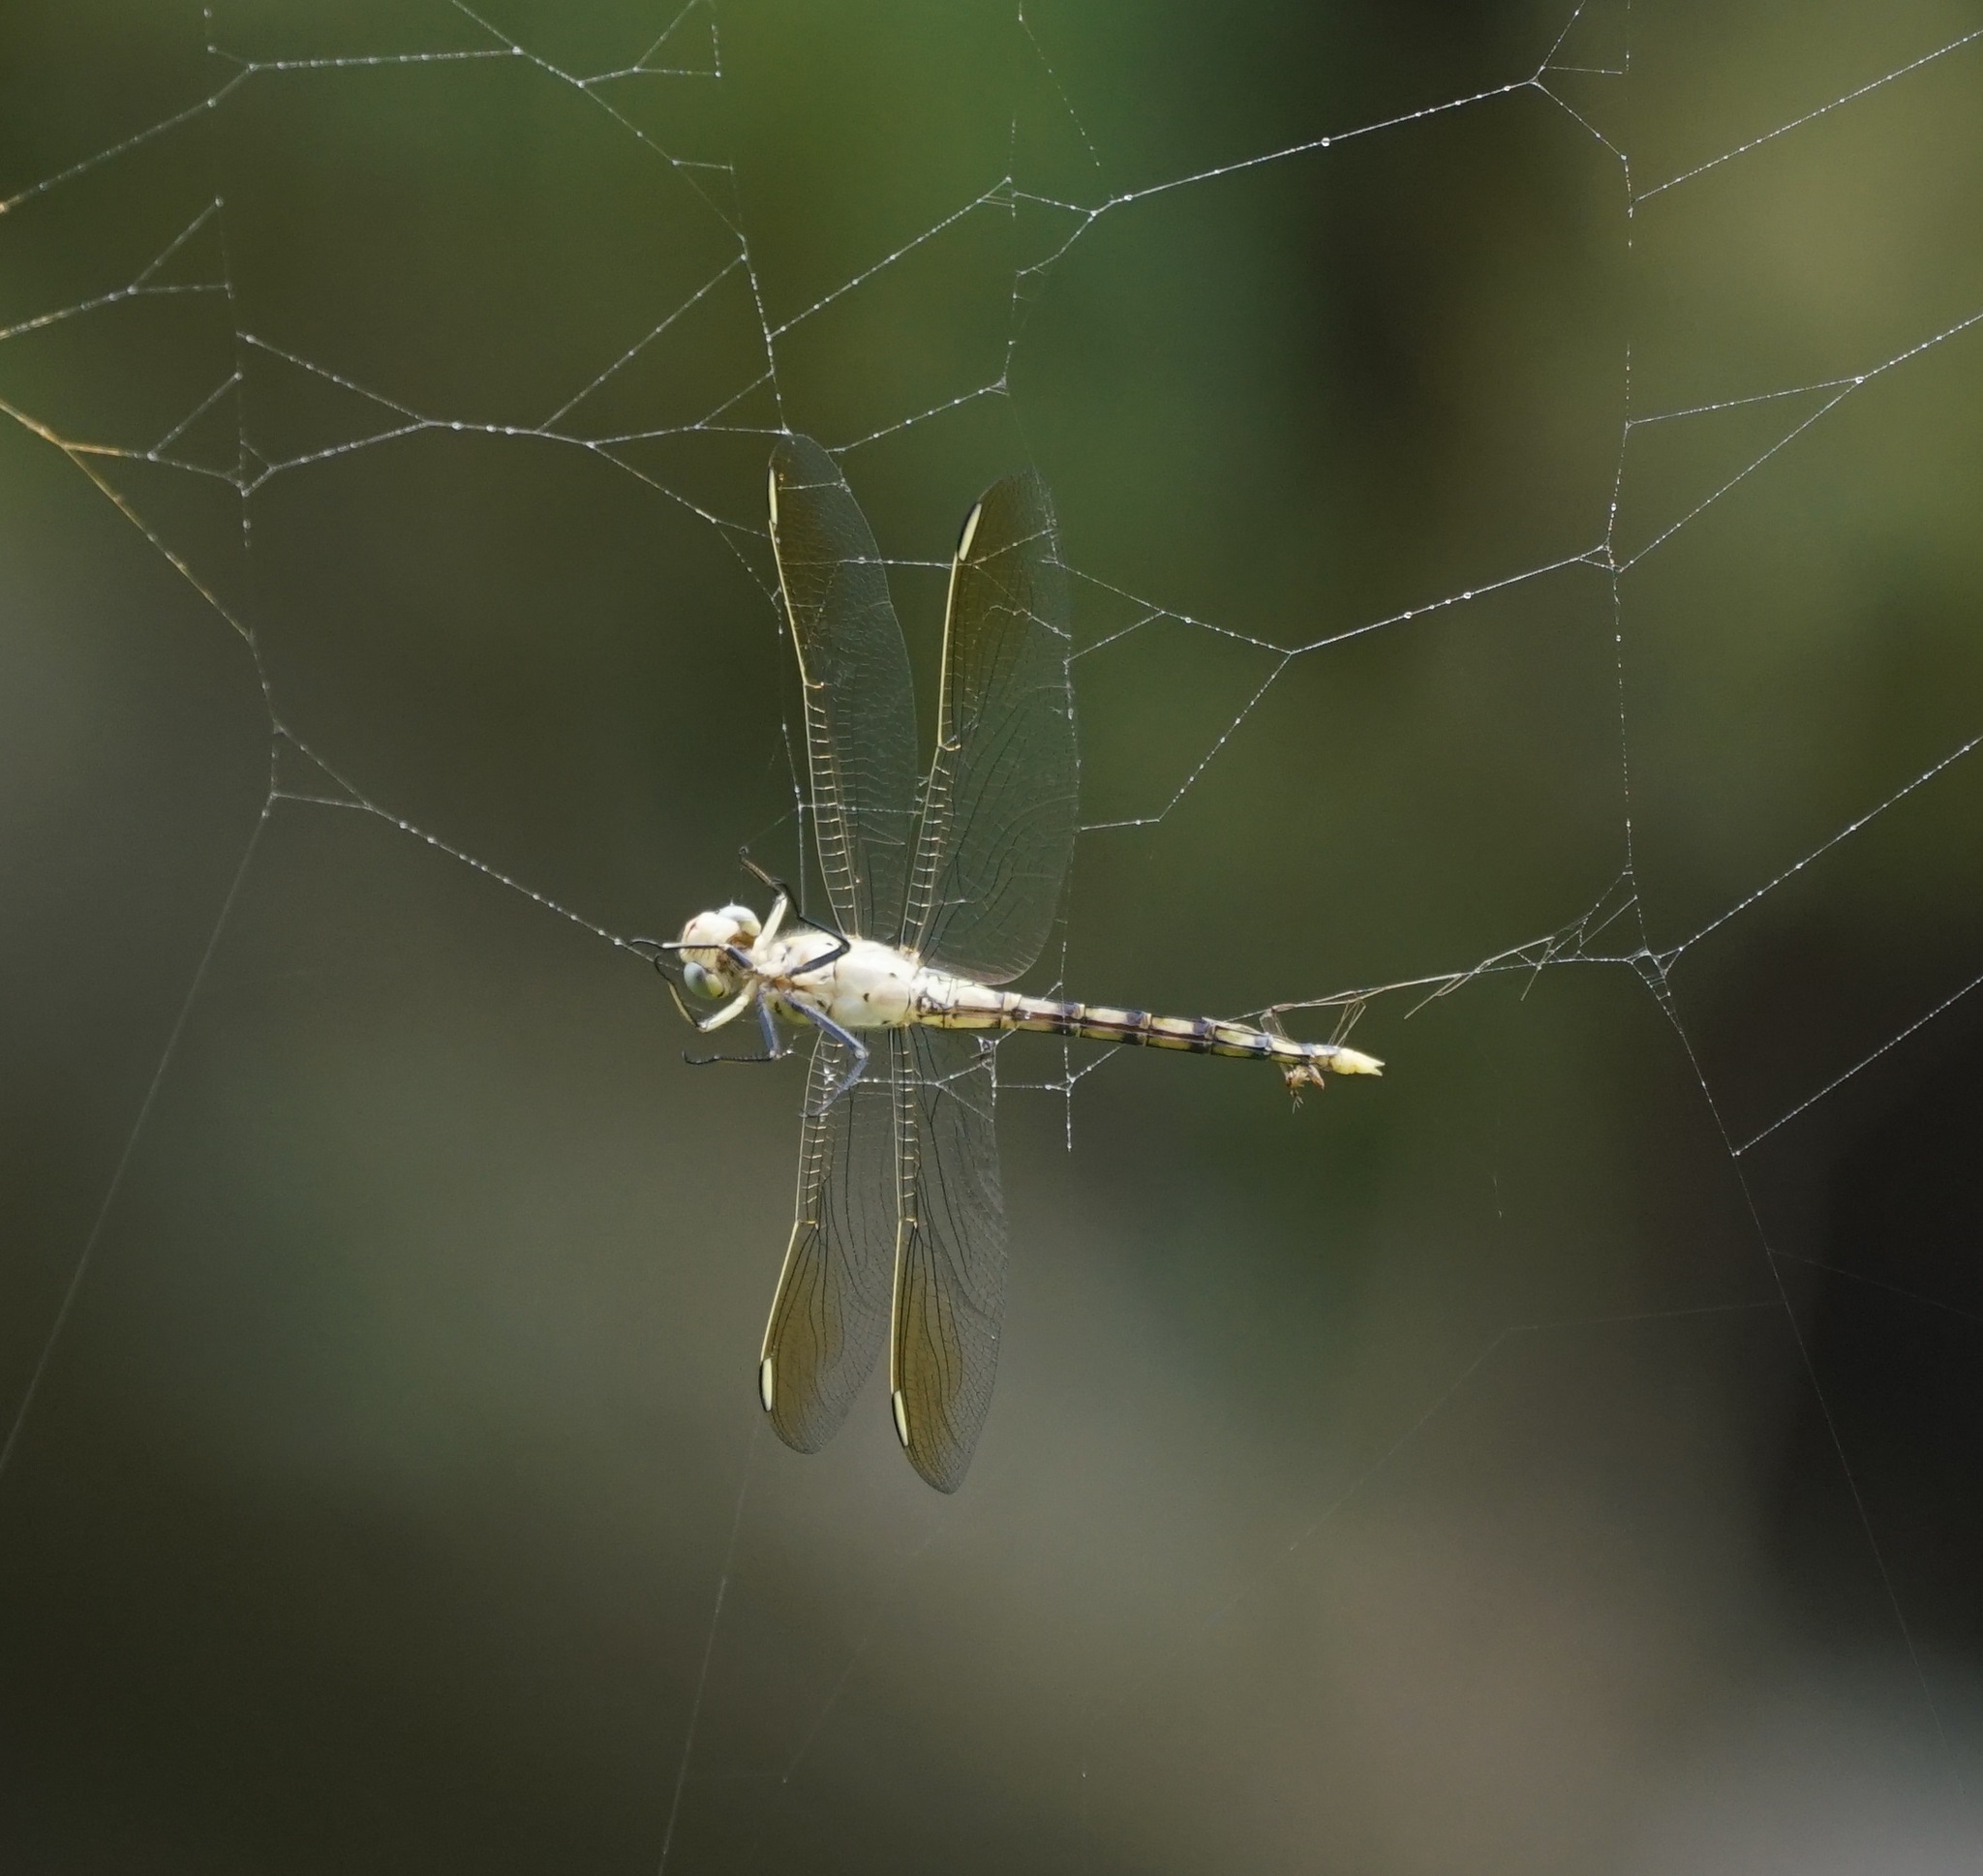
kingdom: Animalia
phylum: Arthropoda
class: Insecta
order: Odonata
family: Libellulidae
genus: Orthetrum
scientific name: Orthetrum caledonicum
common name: Blue skimmer
